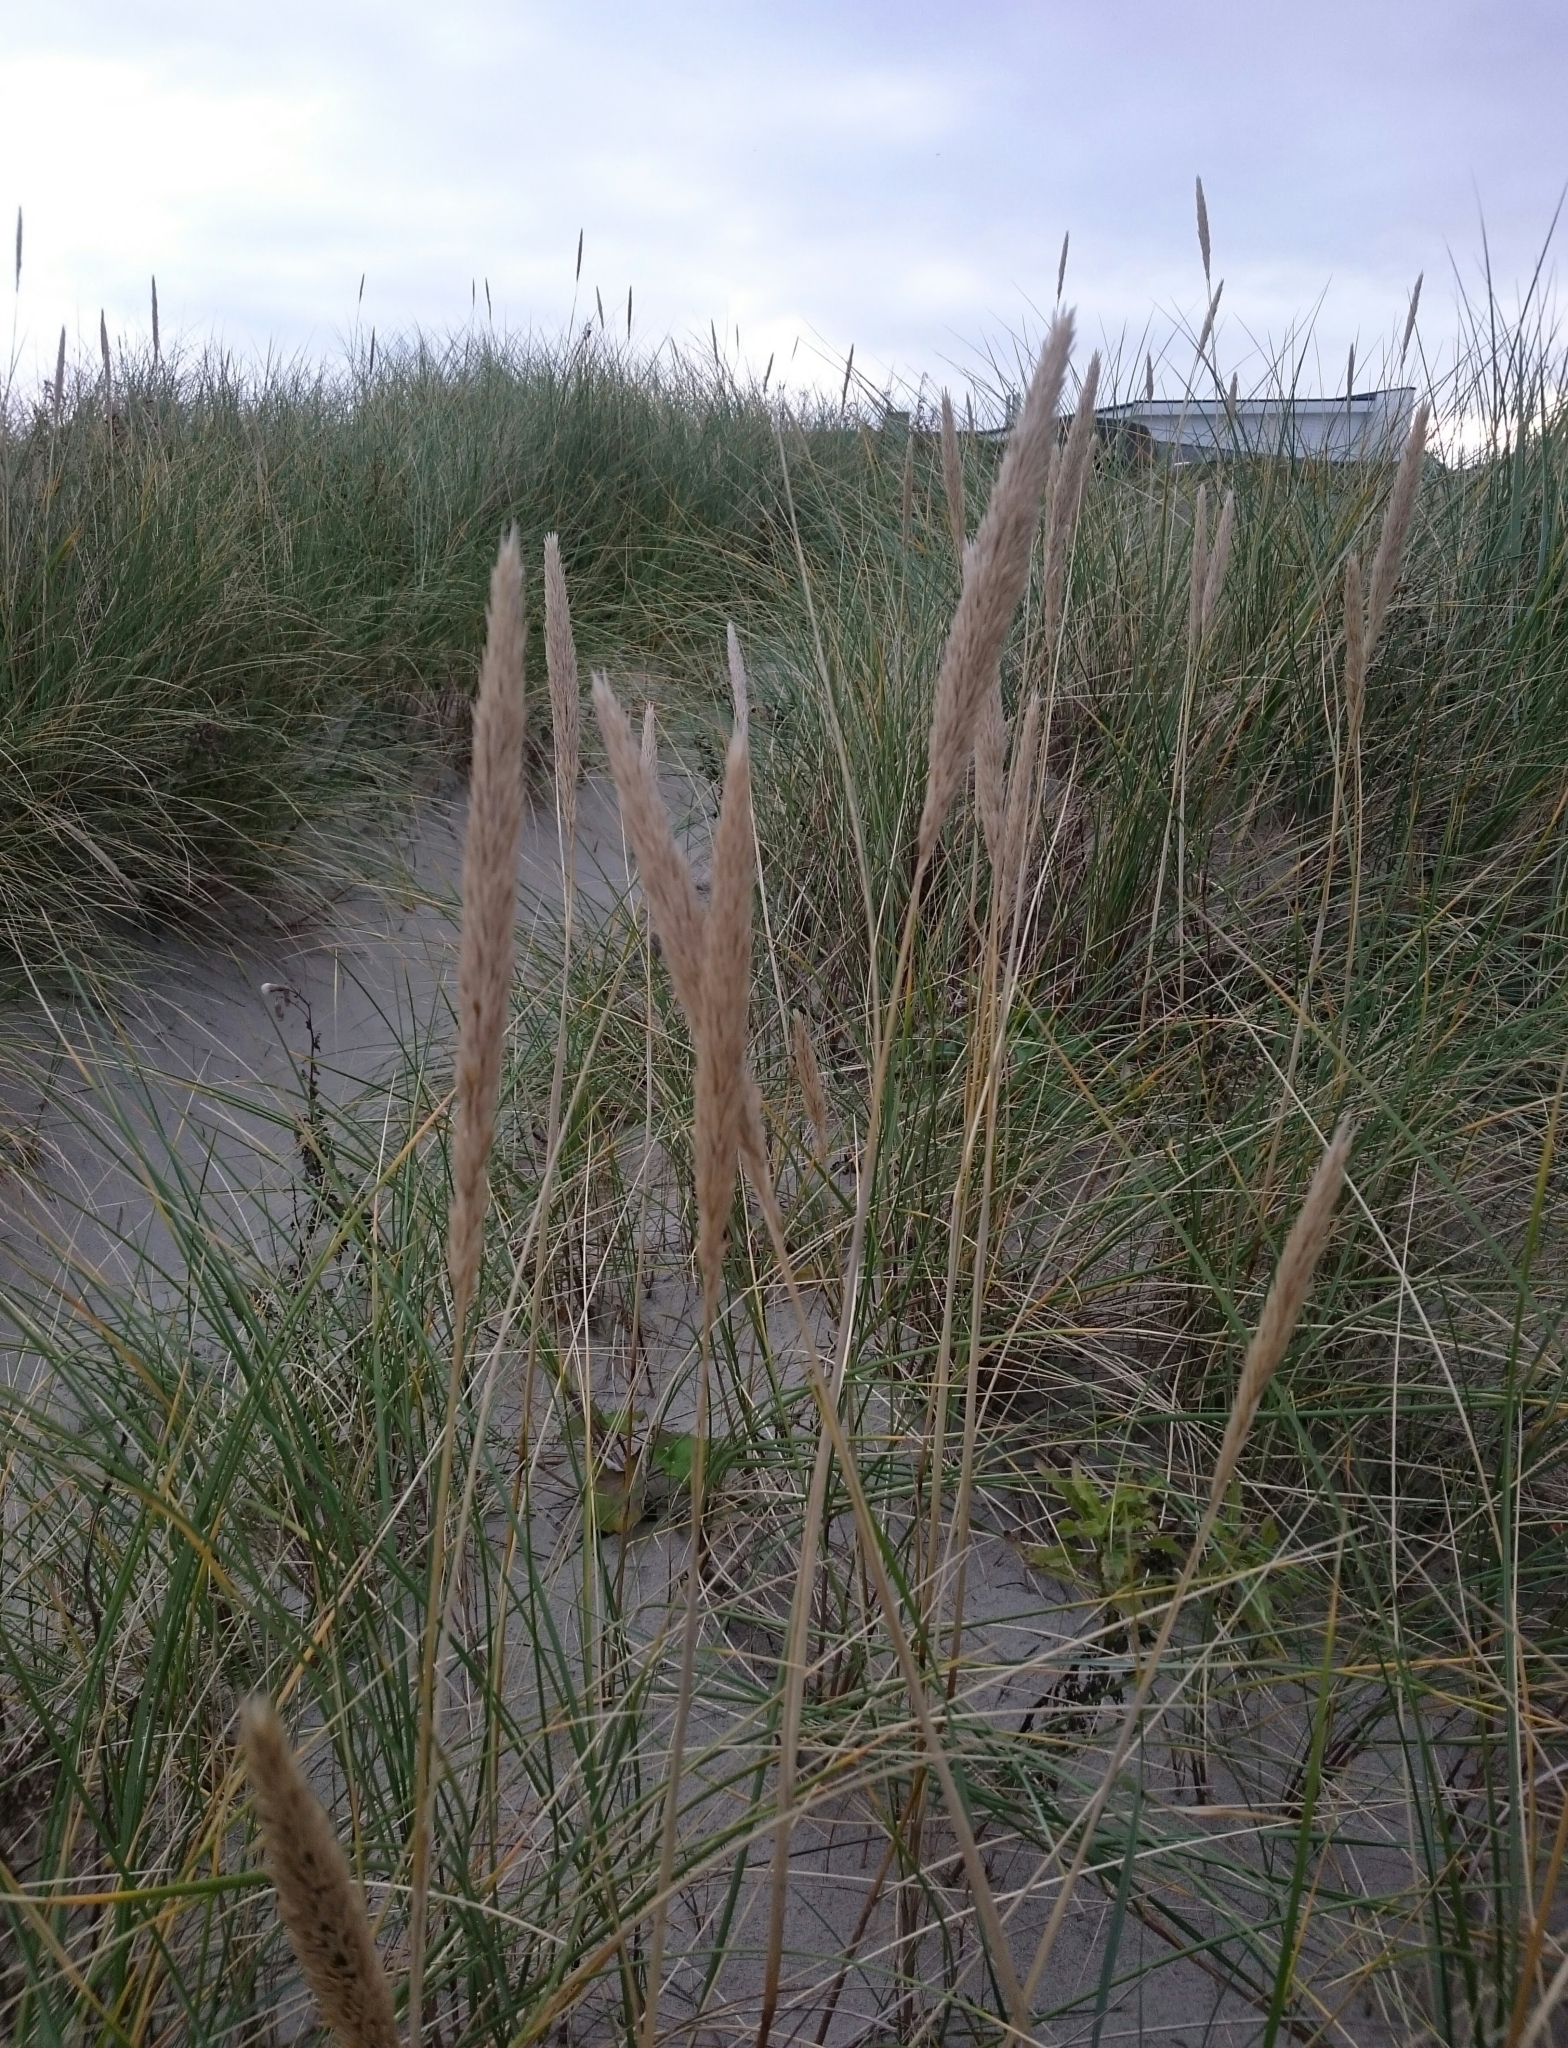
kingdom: Plantae
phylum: Tracheophyta
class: Liliopsida
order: Poales
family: Poaceae
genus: Calamagrostis
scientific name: Calamagrostis arenaria
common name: European beachgrass
